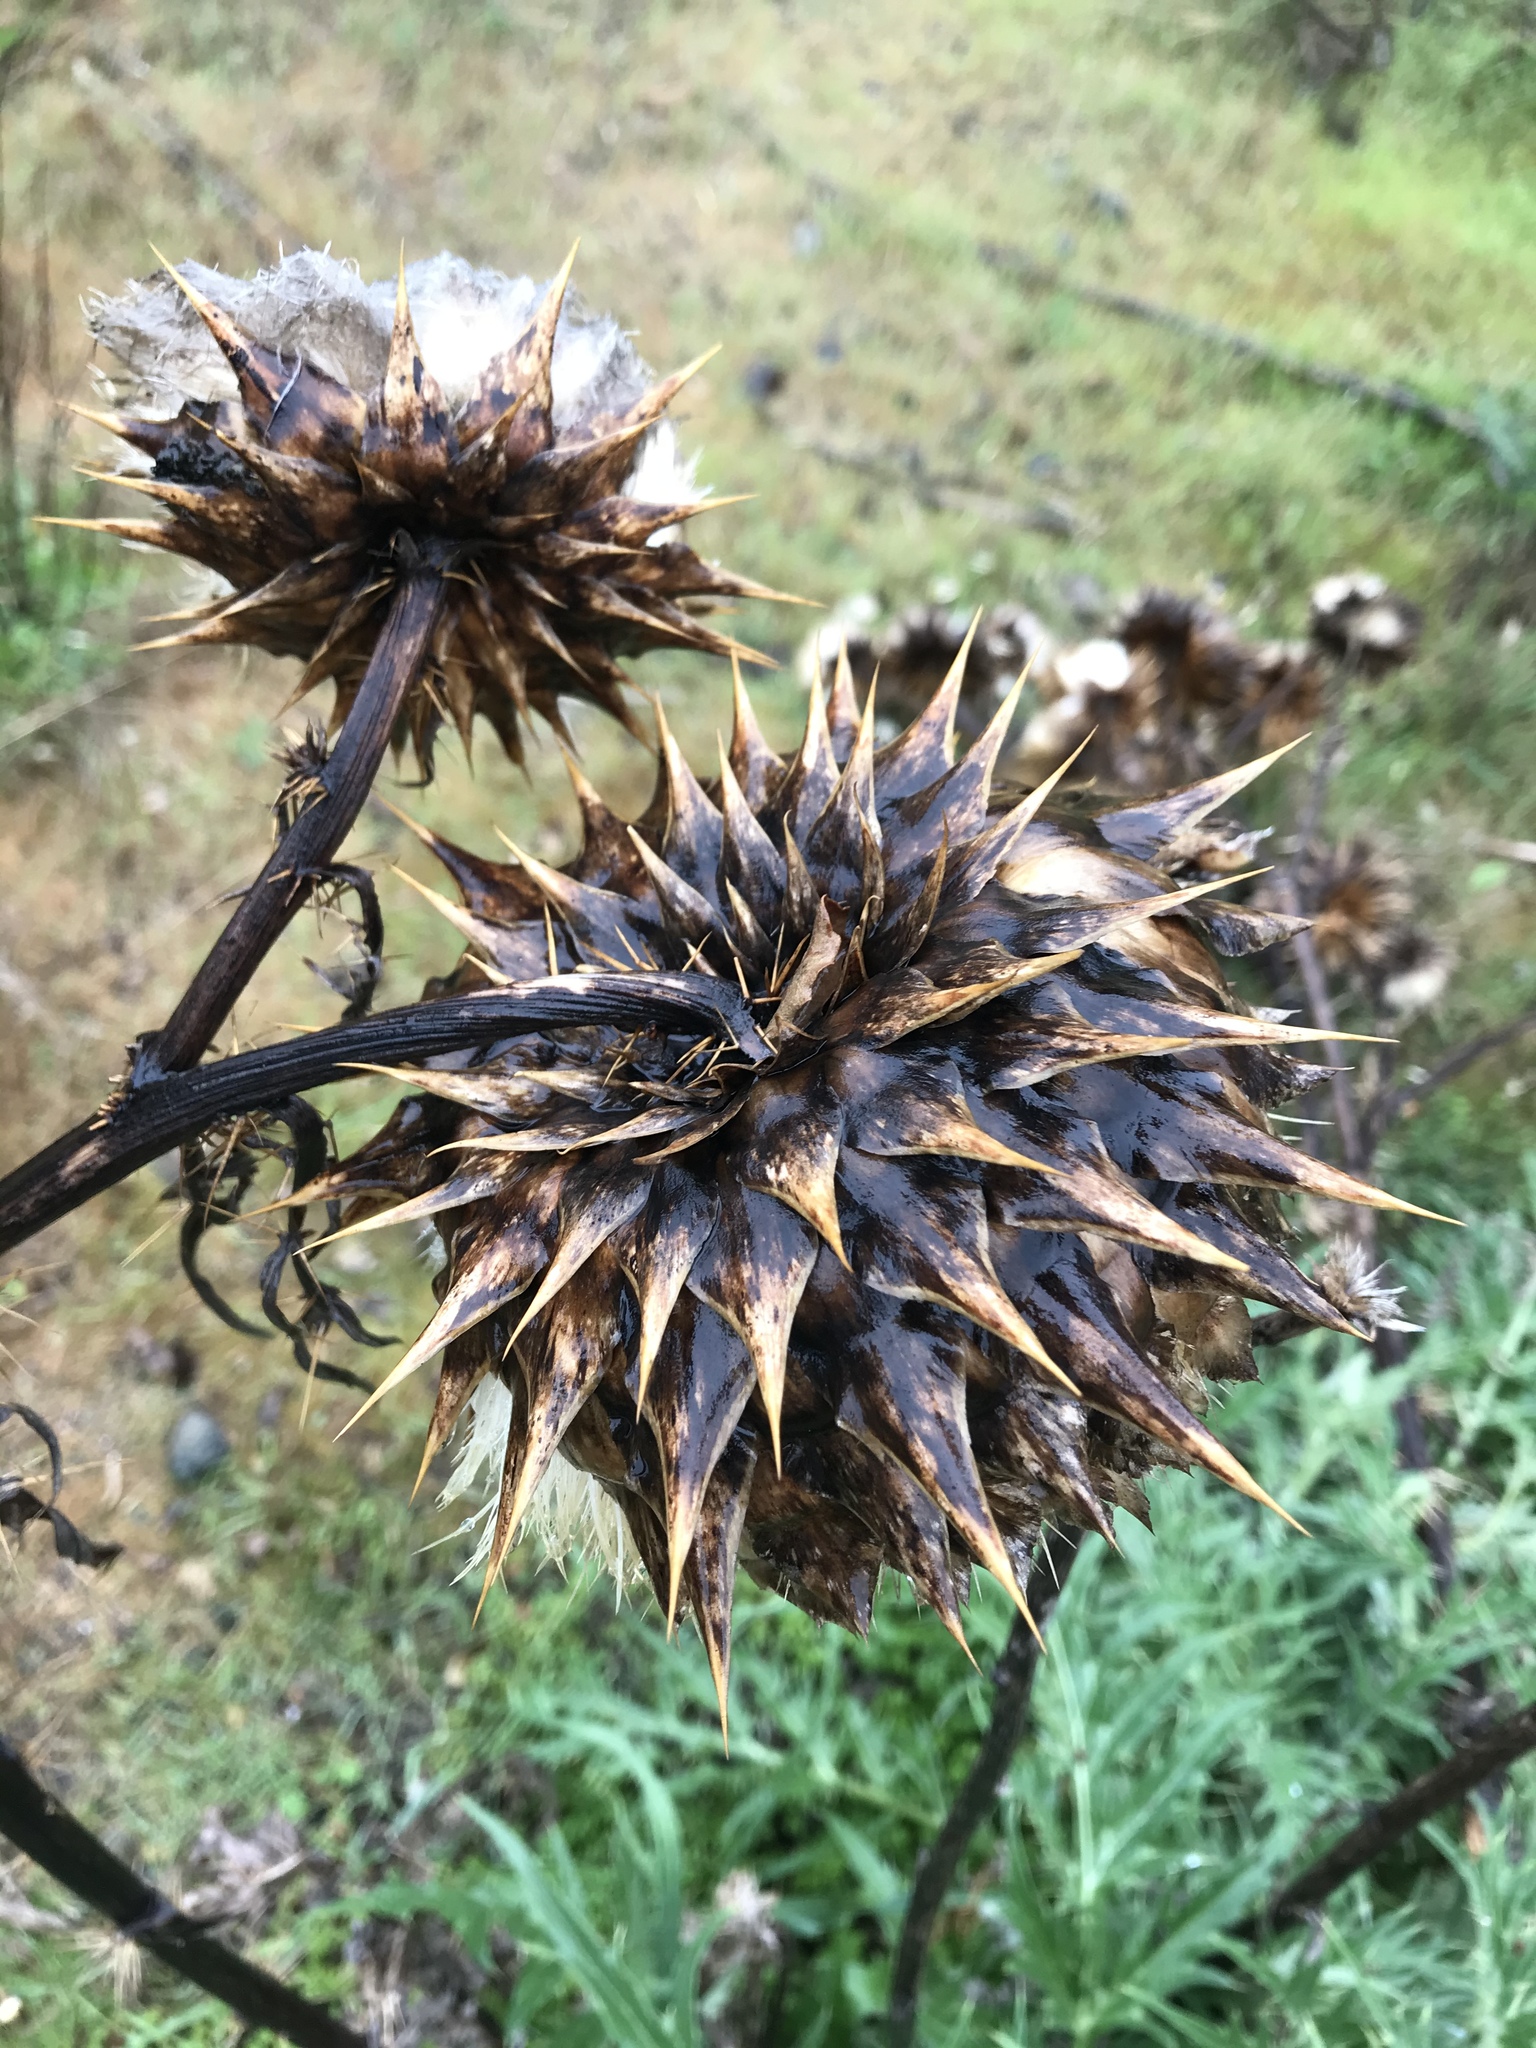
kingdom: Plantae
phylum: Tracheophyta
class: Magnoliopsida
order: Asterales
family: Asteraceae
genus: Cynara
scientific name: Cynara cardunculus
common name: Globe artichoke
